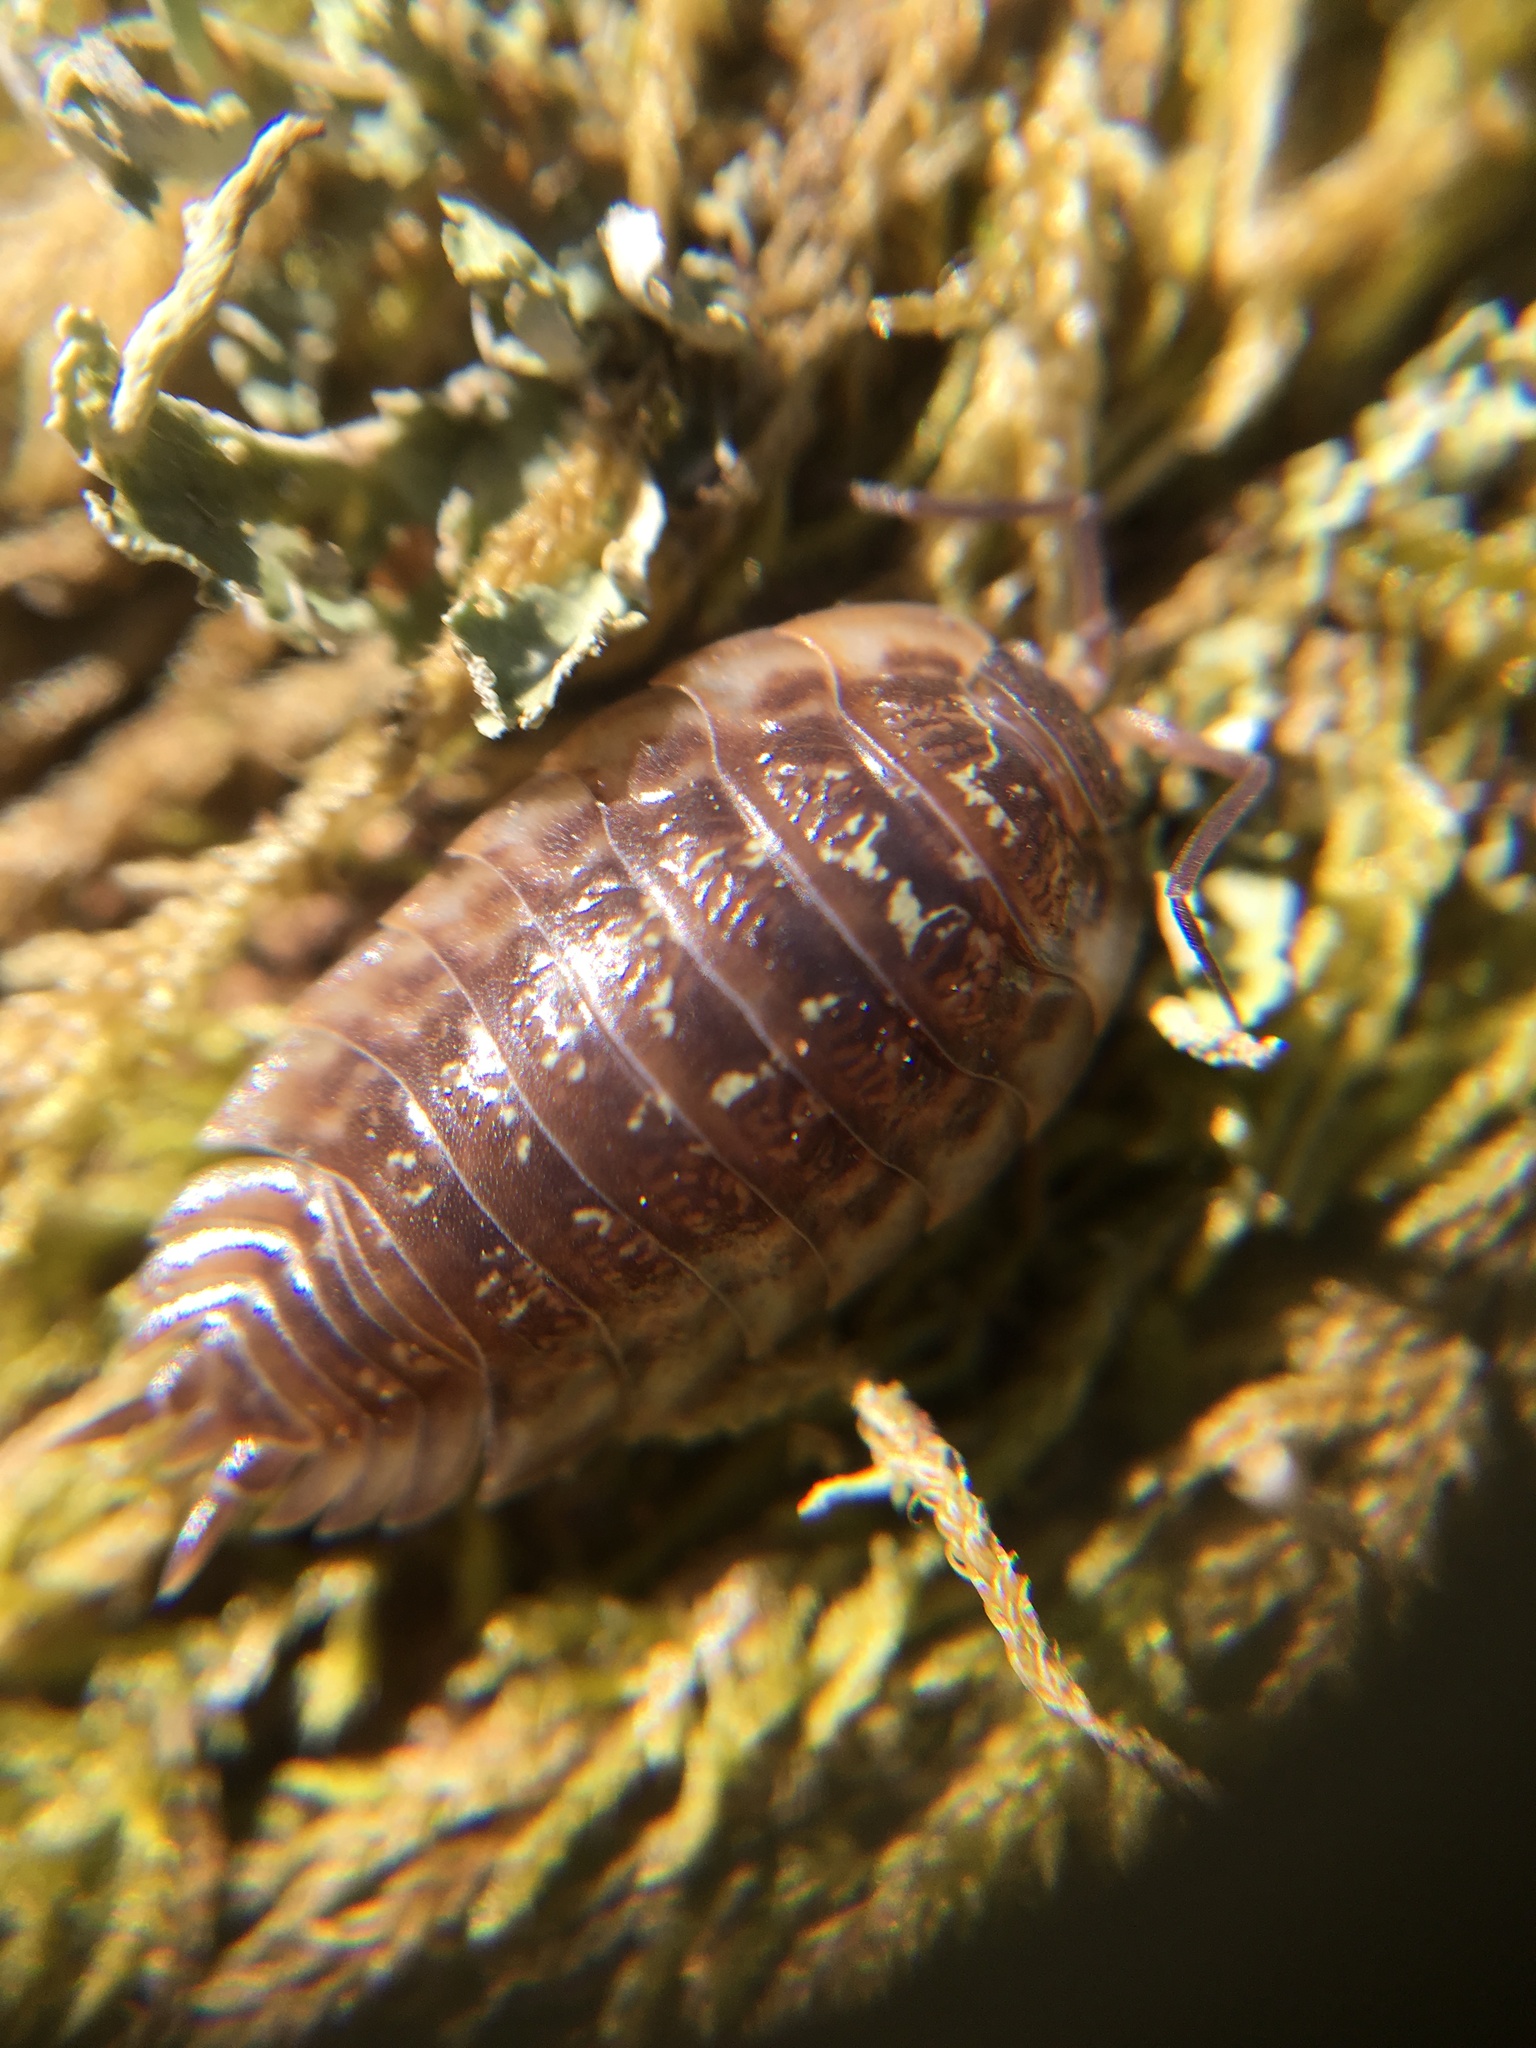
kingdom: Animalia
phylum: Arthropoda
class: Malacostraca
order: Isopoda
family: Oniscidae
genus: Oniscus
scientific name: Oniscus asellus
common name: Common shiny woodlouse
